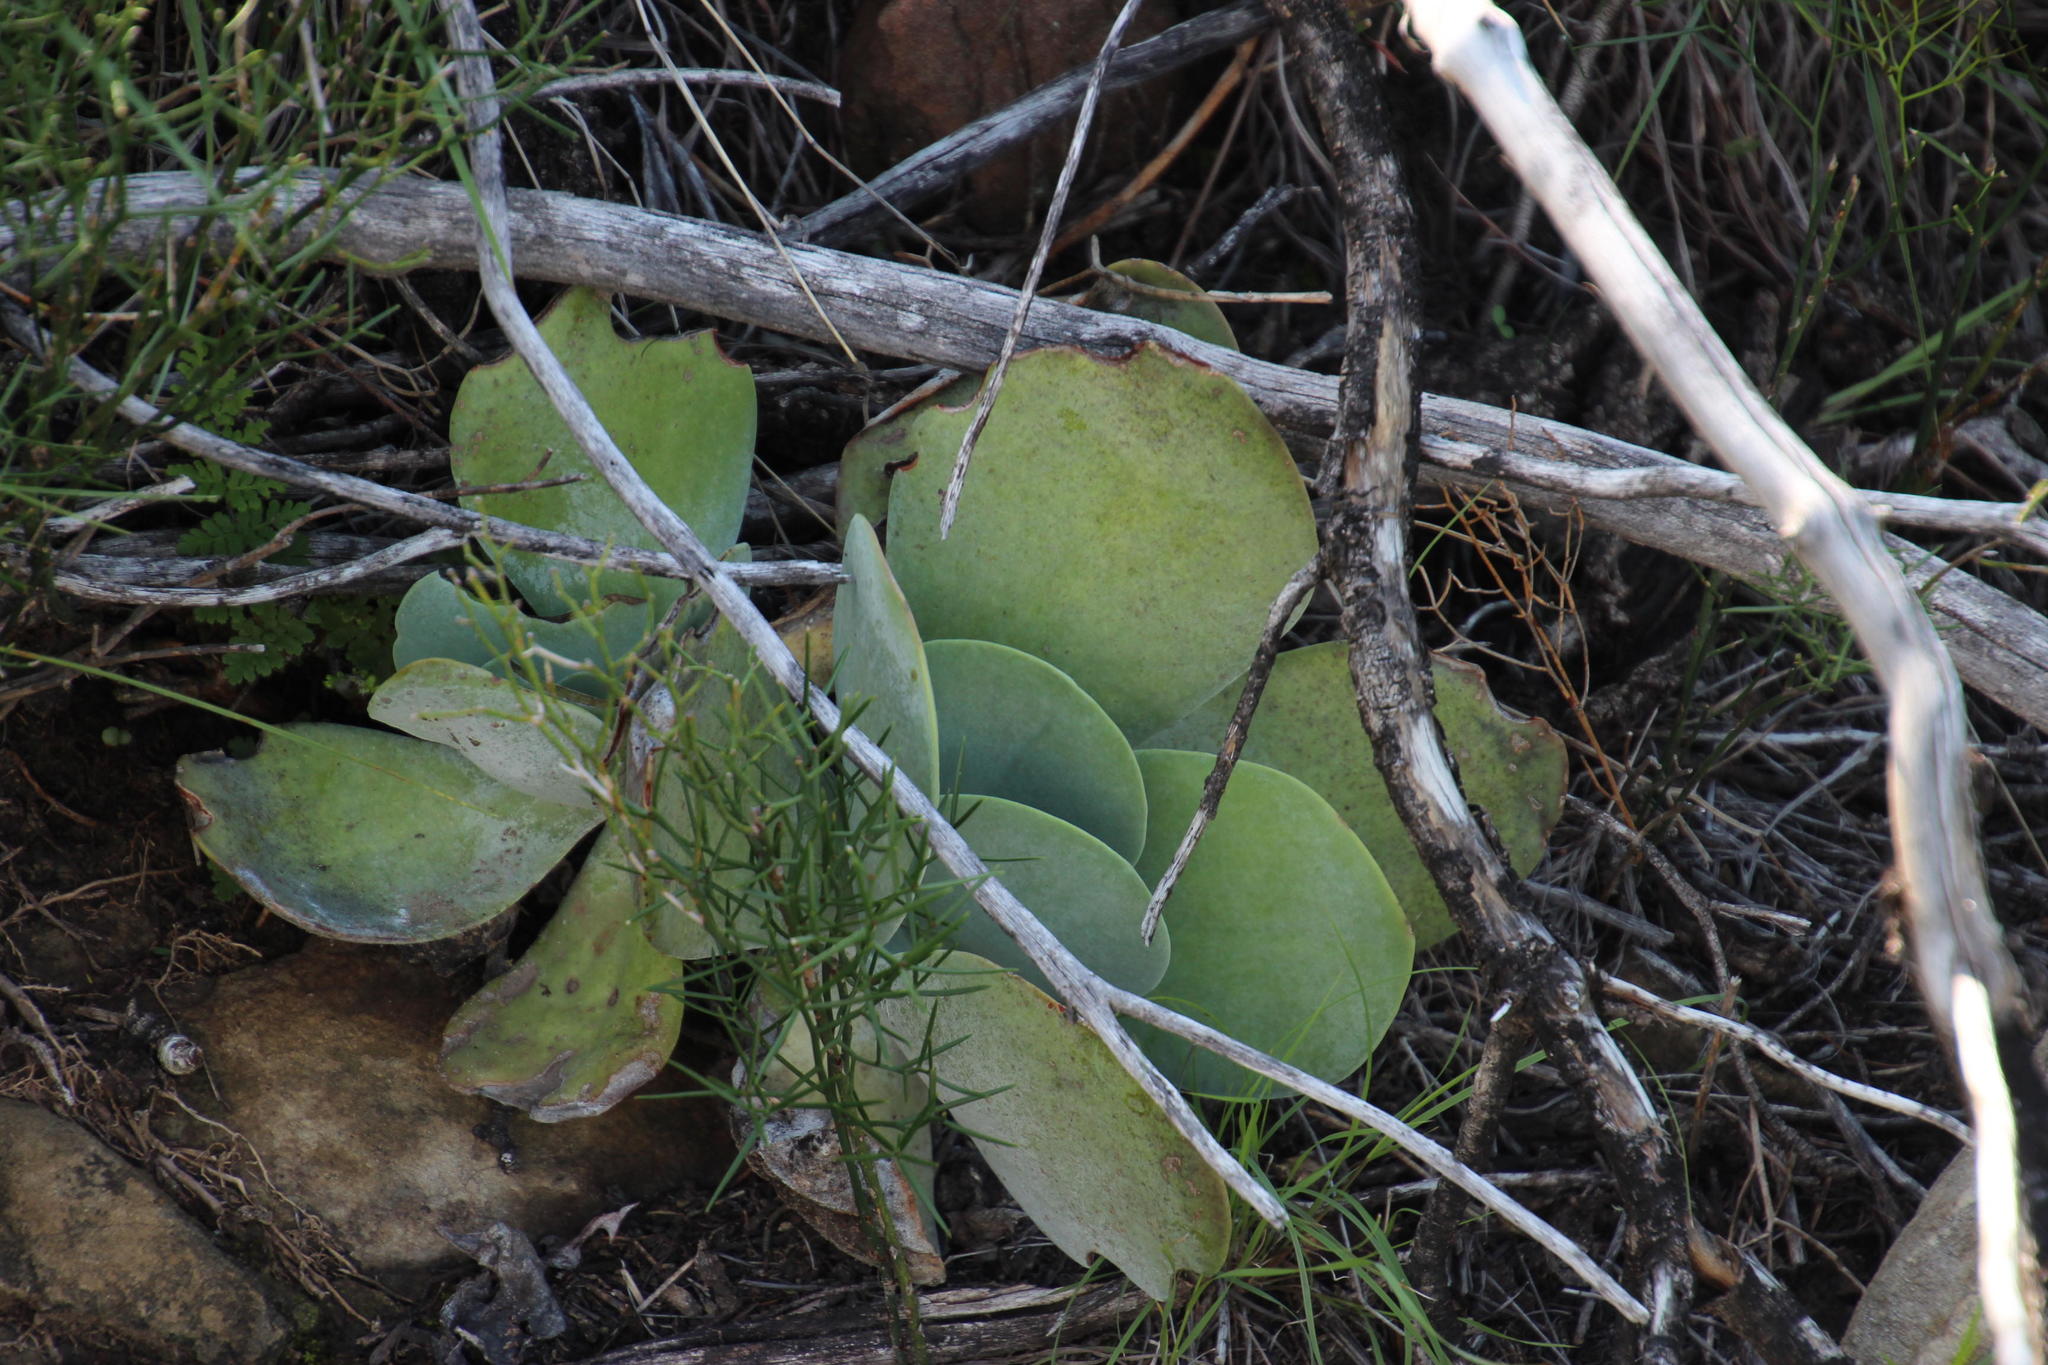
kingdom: Plantae
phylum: Tracheophyta
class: Magnoliopsida
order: Saxifragales
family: Crassulaceae
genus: Kalanchoe
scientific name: Kalanchoe thyrsiflora
